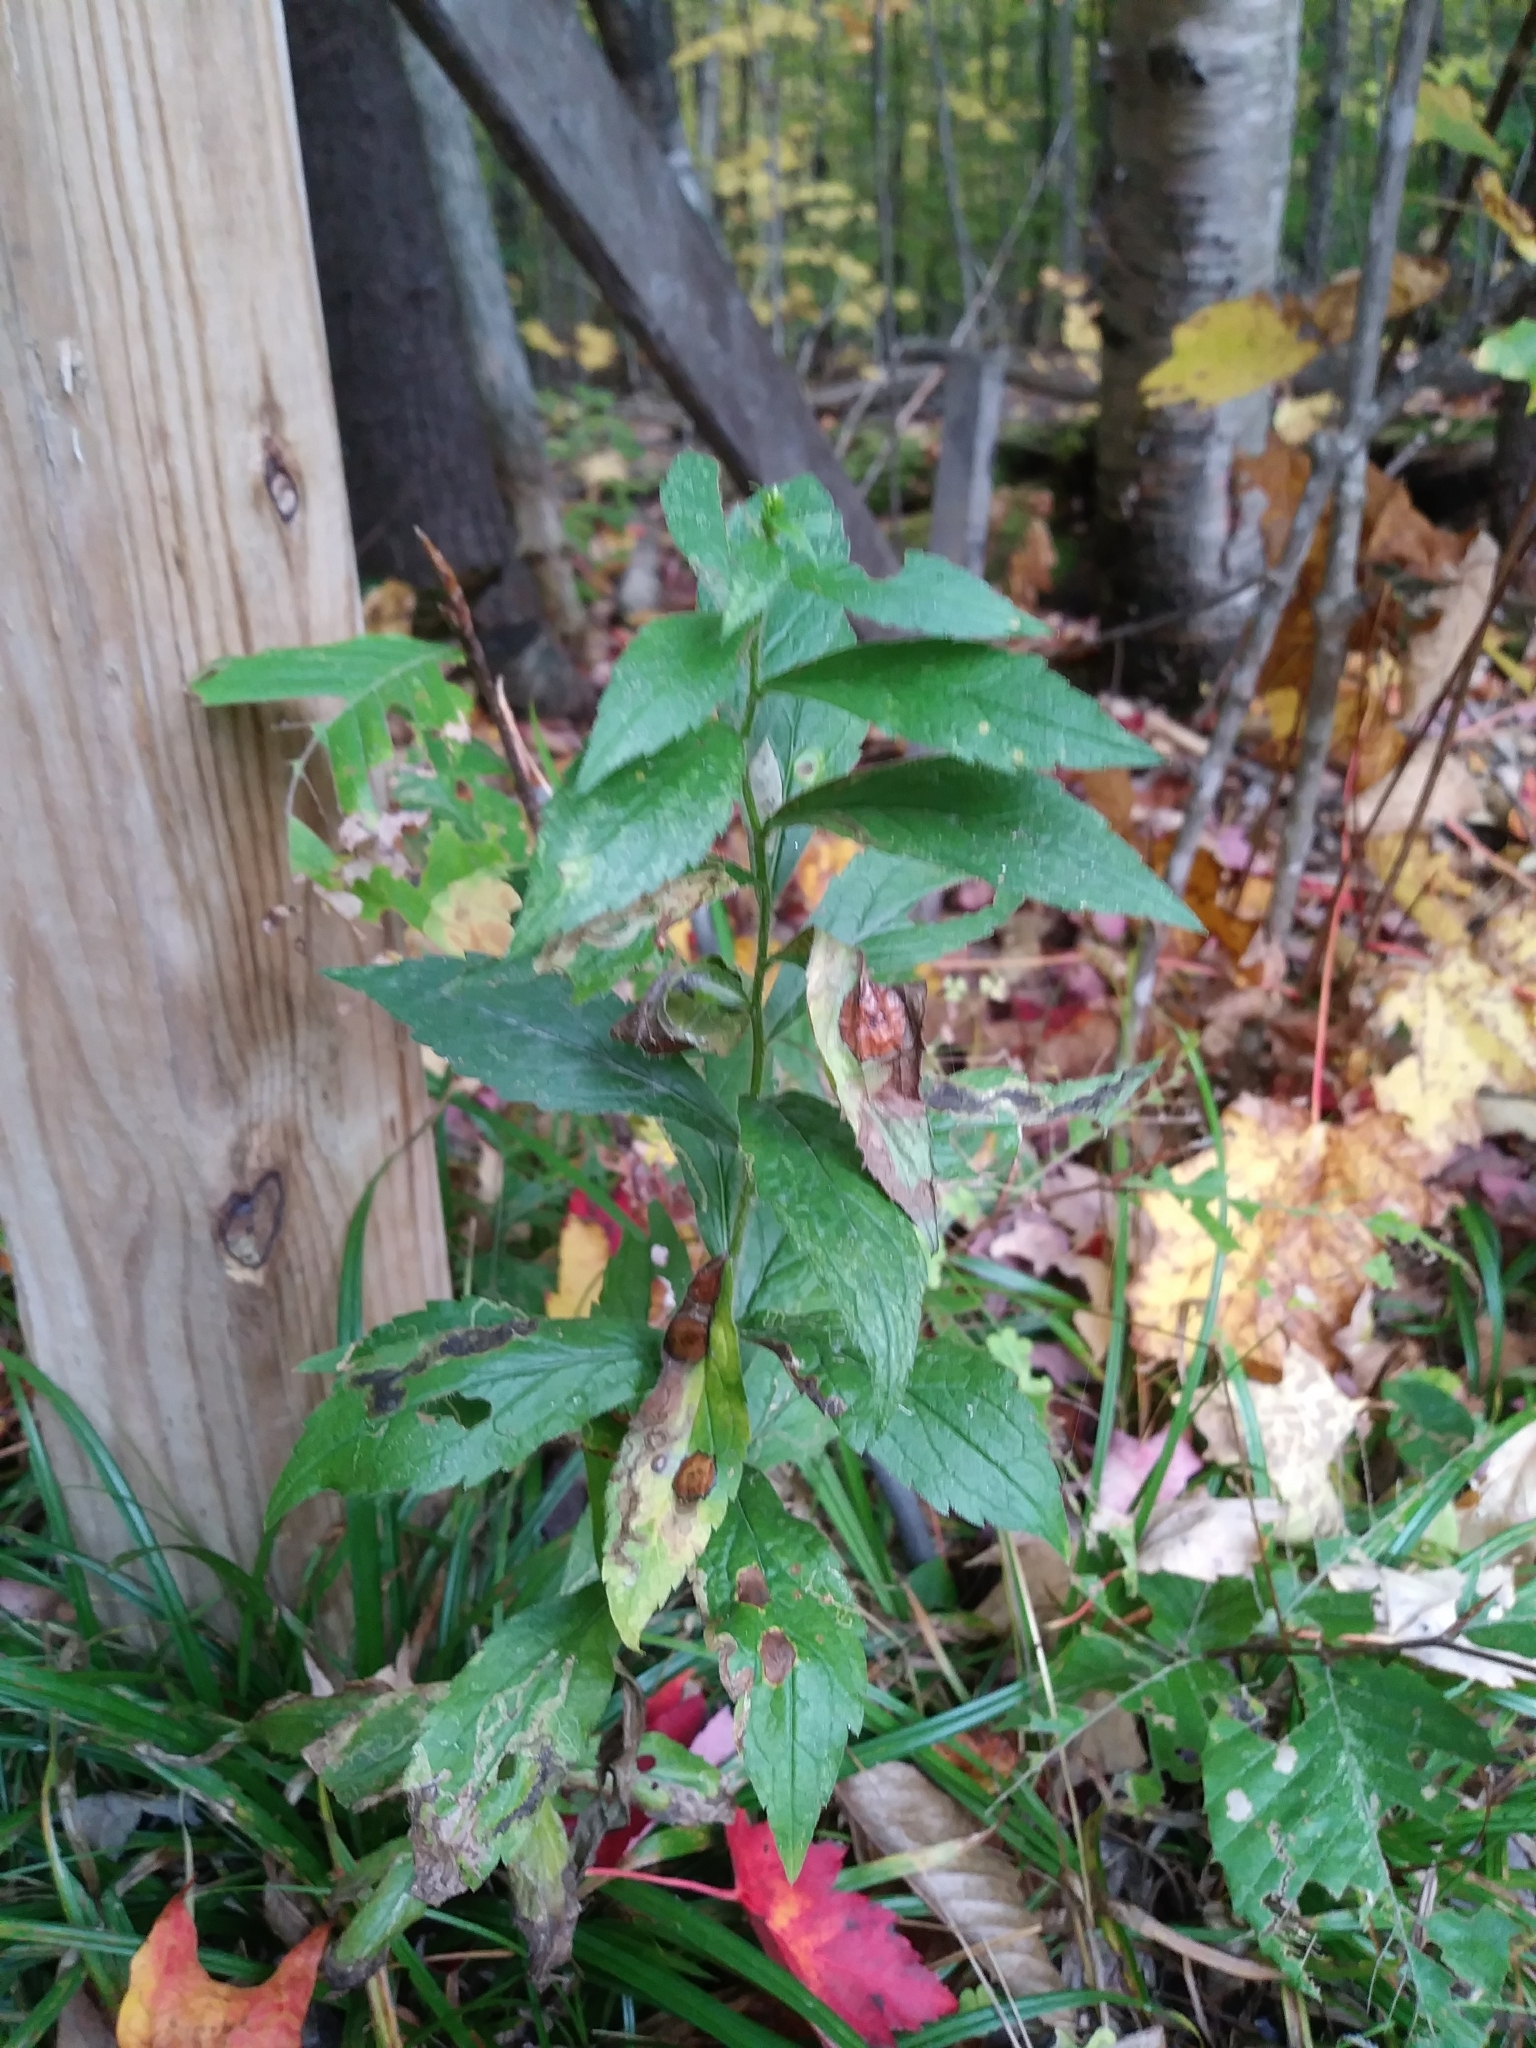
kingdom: Plantae
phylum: Tracheophyta
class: Magnoliopsida
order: Asterales
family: Asteraceae
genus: Solidago
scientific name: Solidago rugosa
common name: Rough-stemmed goldenrod
